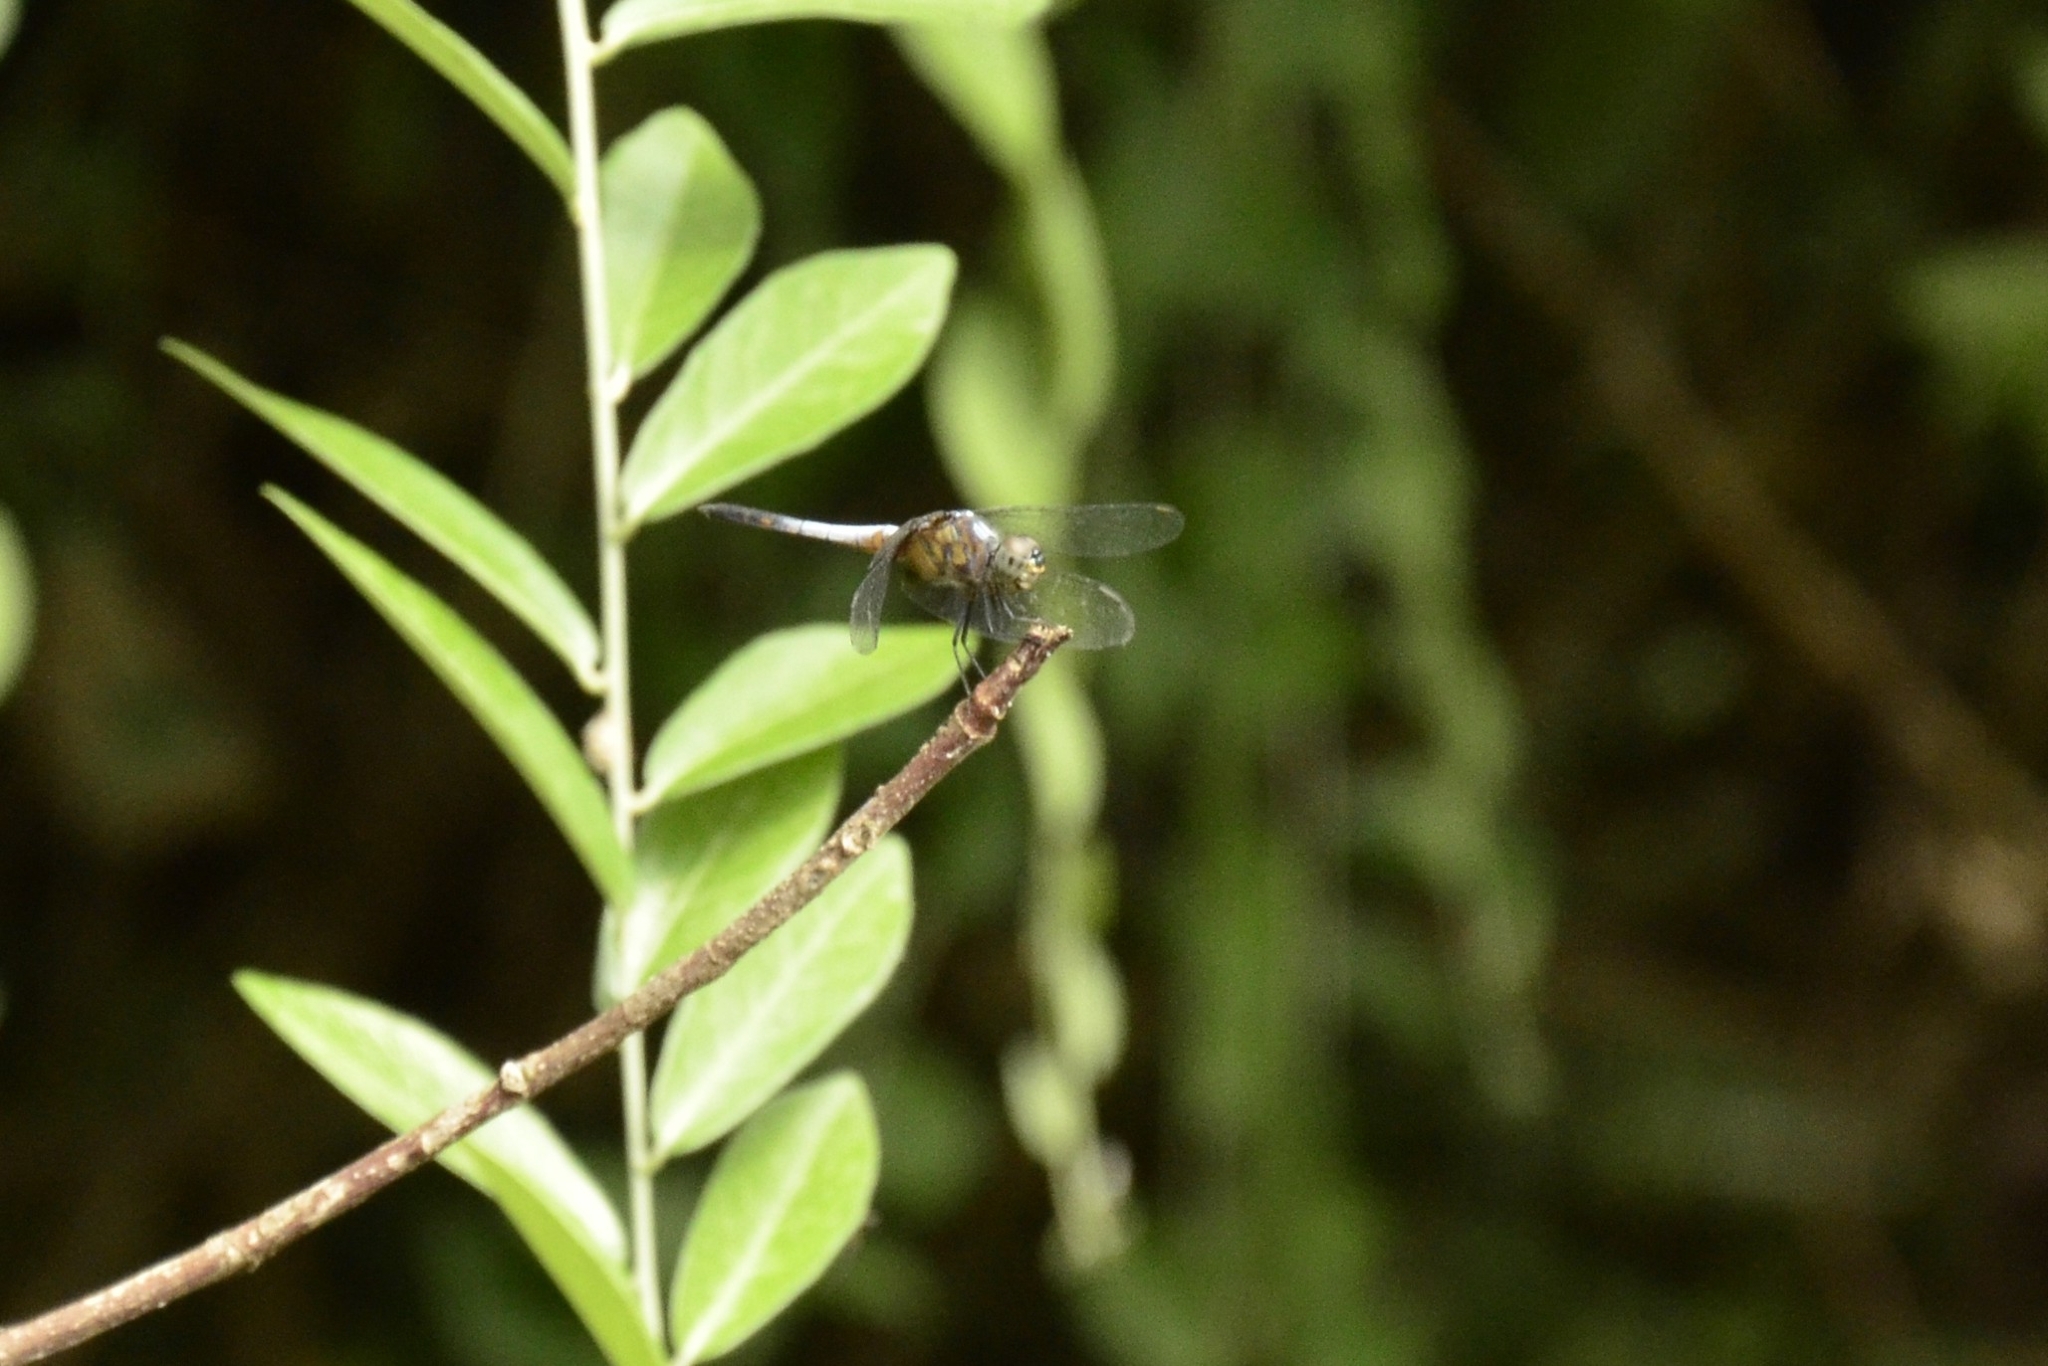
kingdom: Animalia
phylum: Arthropoda
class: Insecta
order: Odonata
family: Libellulidae
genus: Brachydiplax
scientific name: Brachydiplax chalybea
